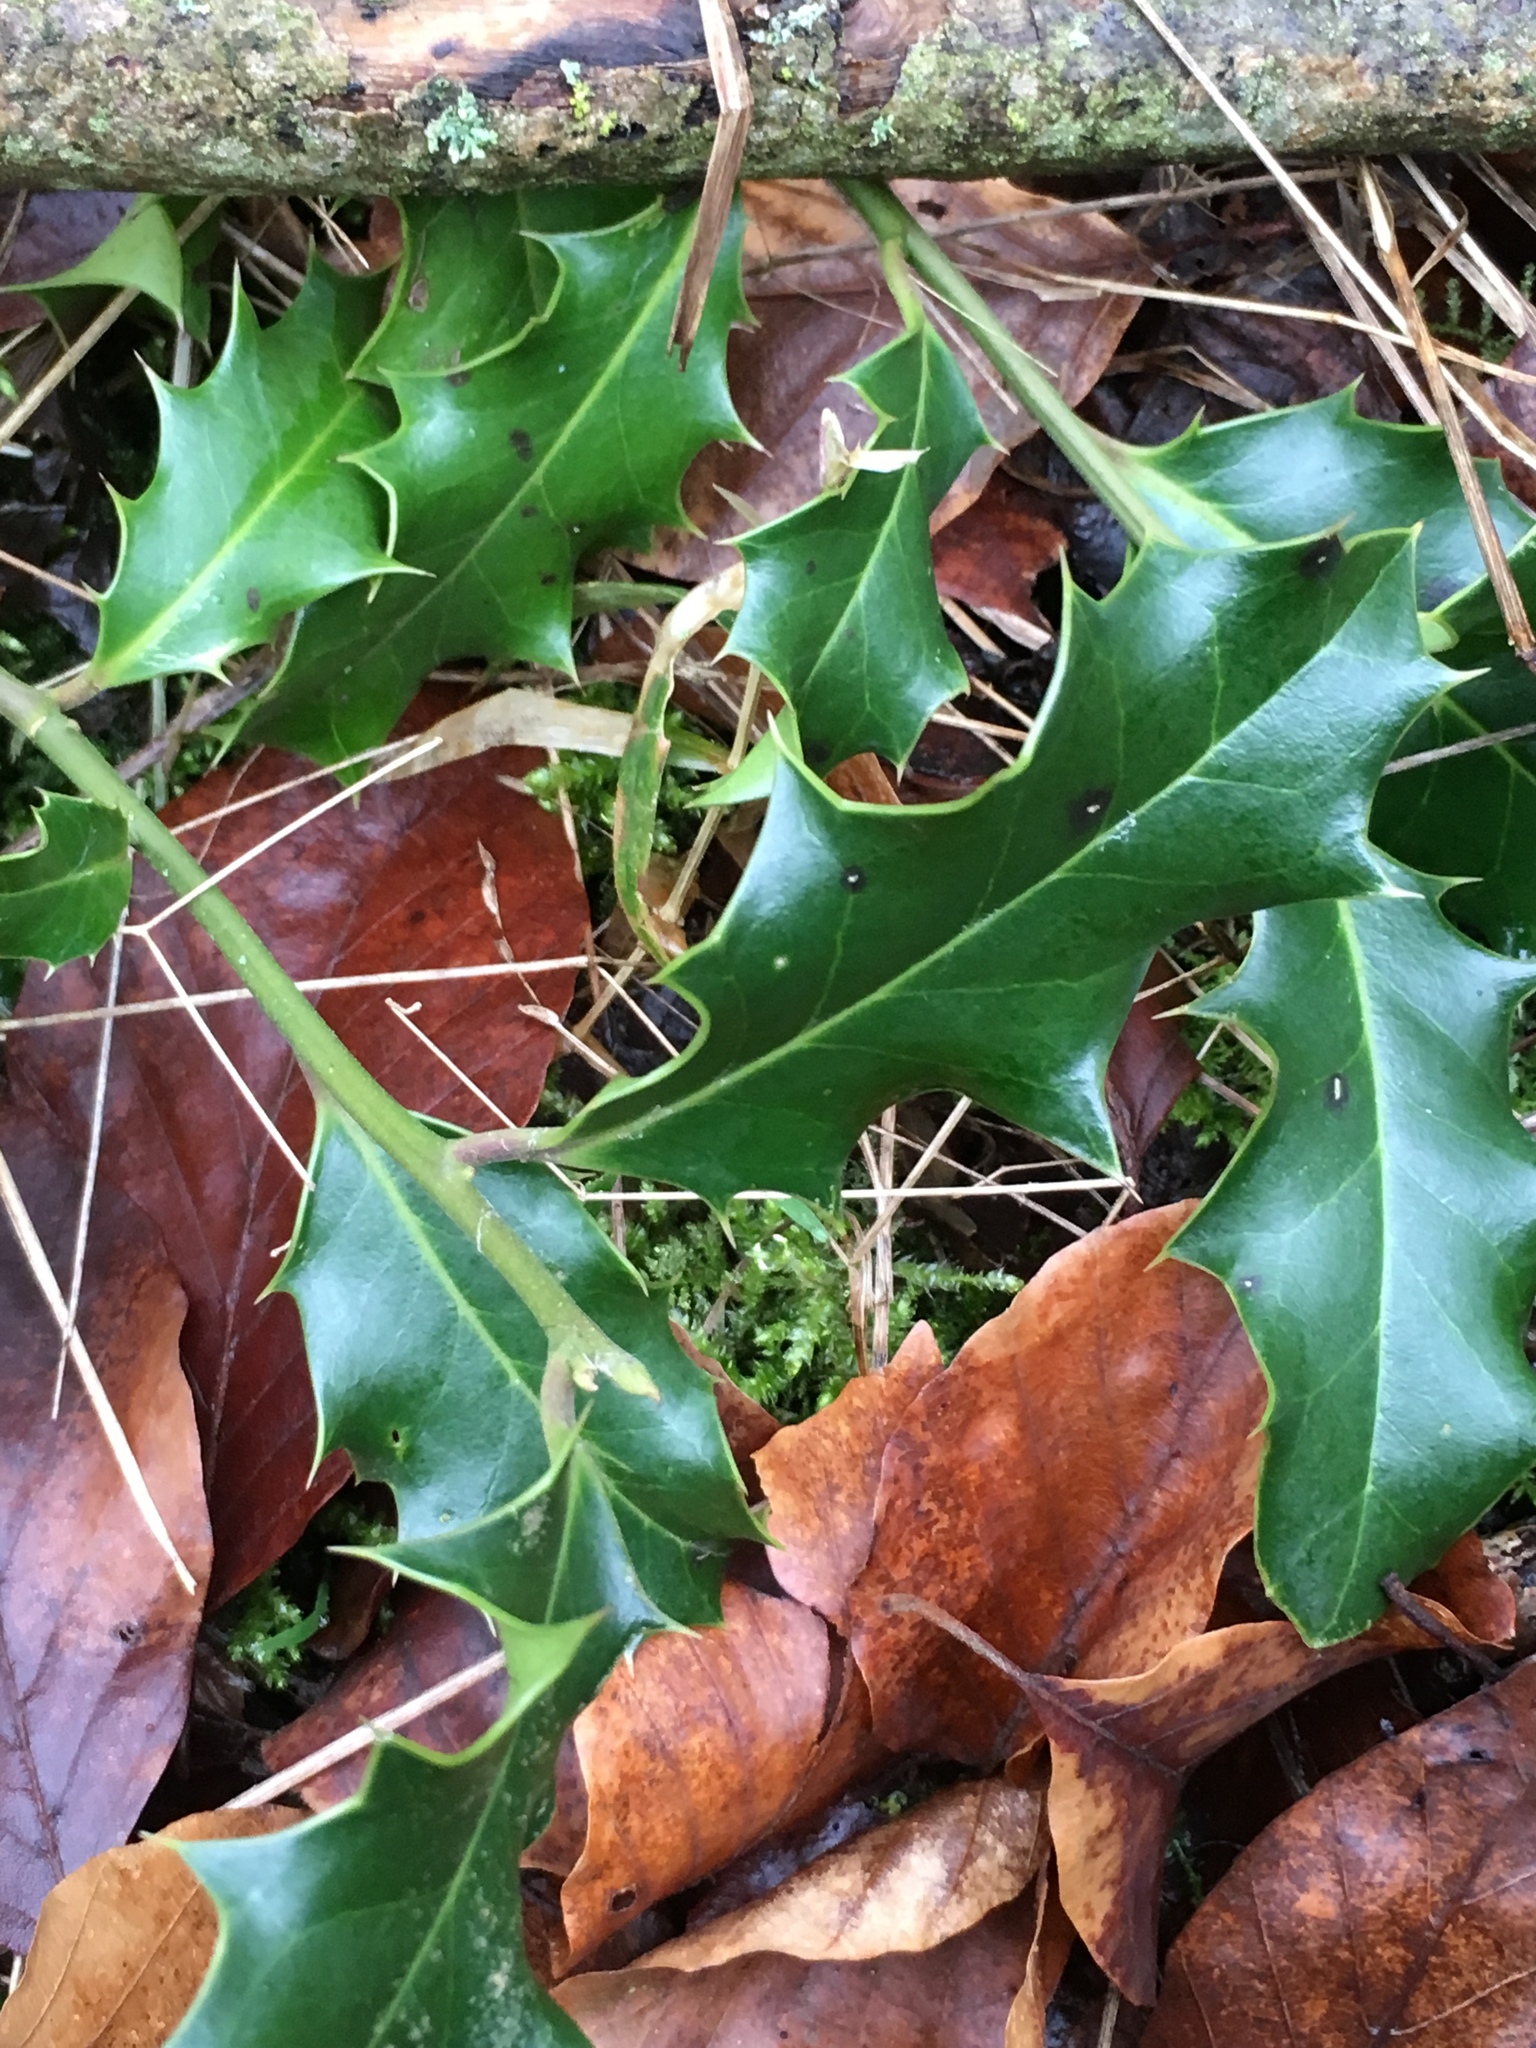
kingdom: Plantae
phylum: Tracheophyta
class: Magnoliopsida
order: Aquifoliales
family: Aquifoliaceae
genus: Ilex
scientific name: Ilex aquifolium
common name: English holly
